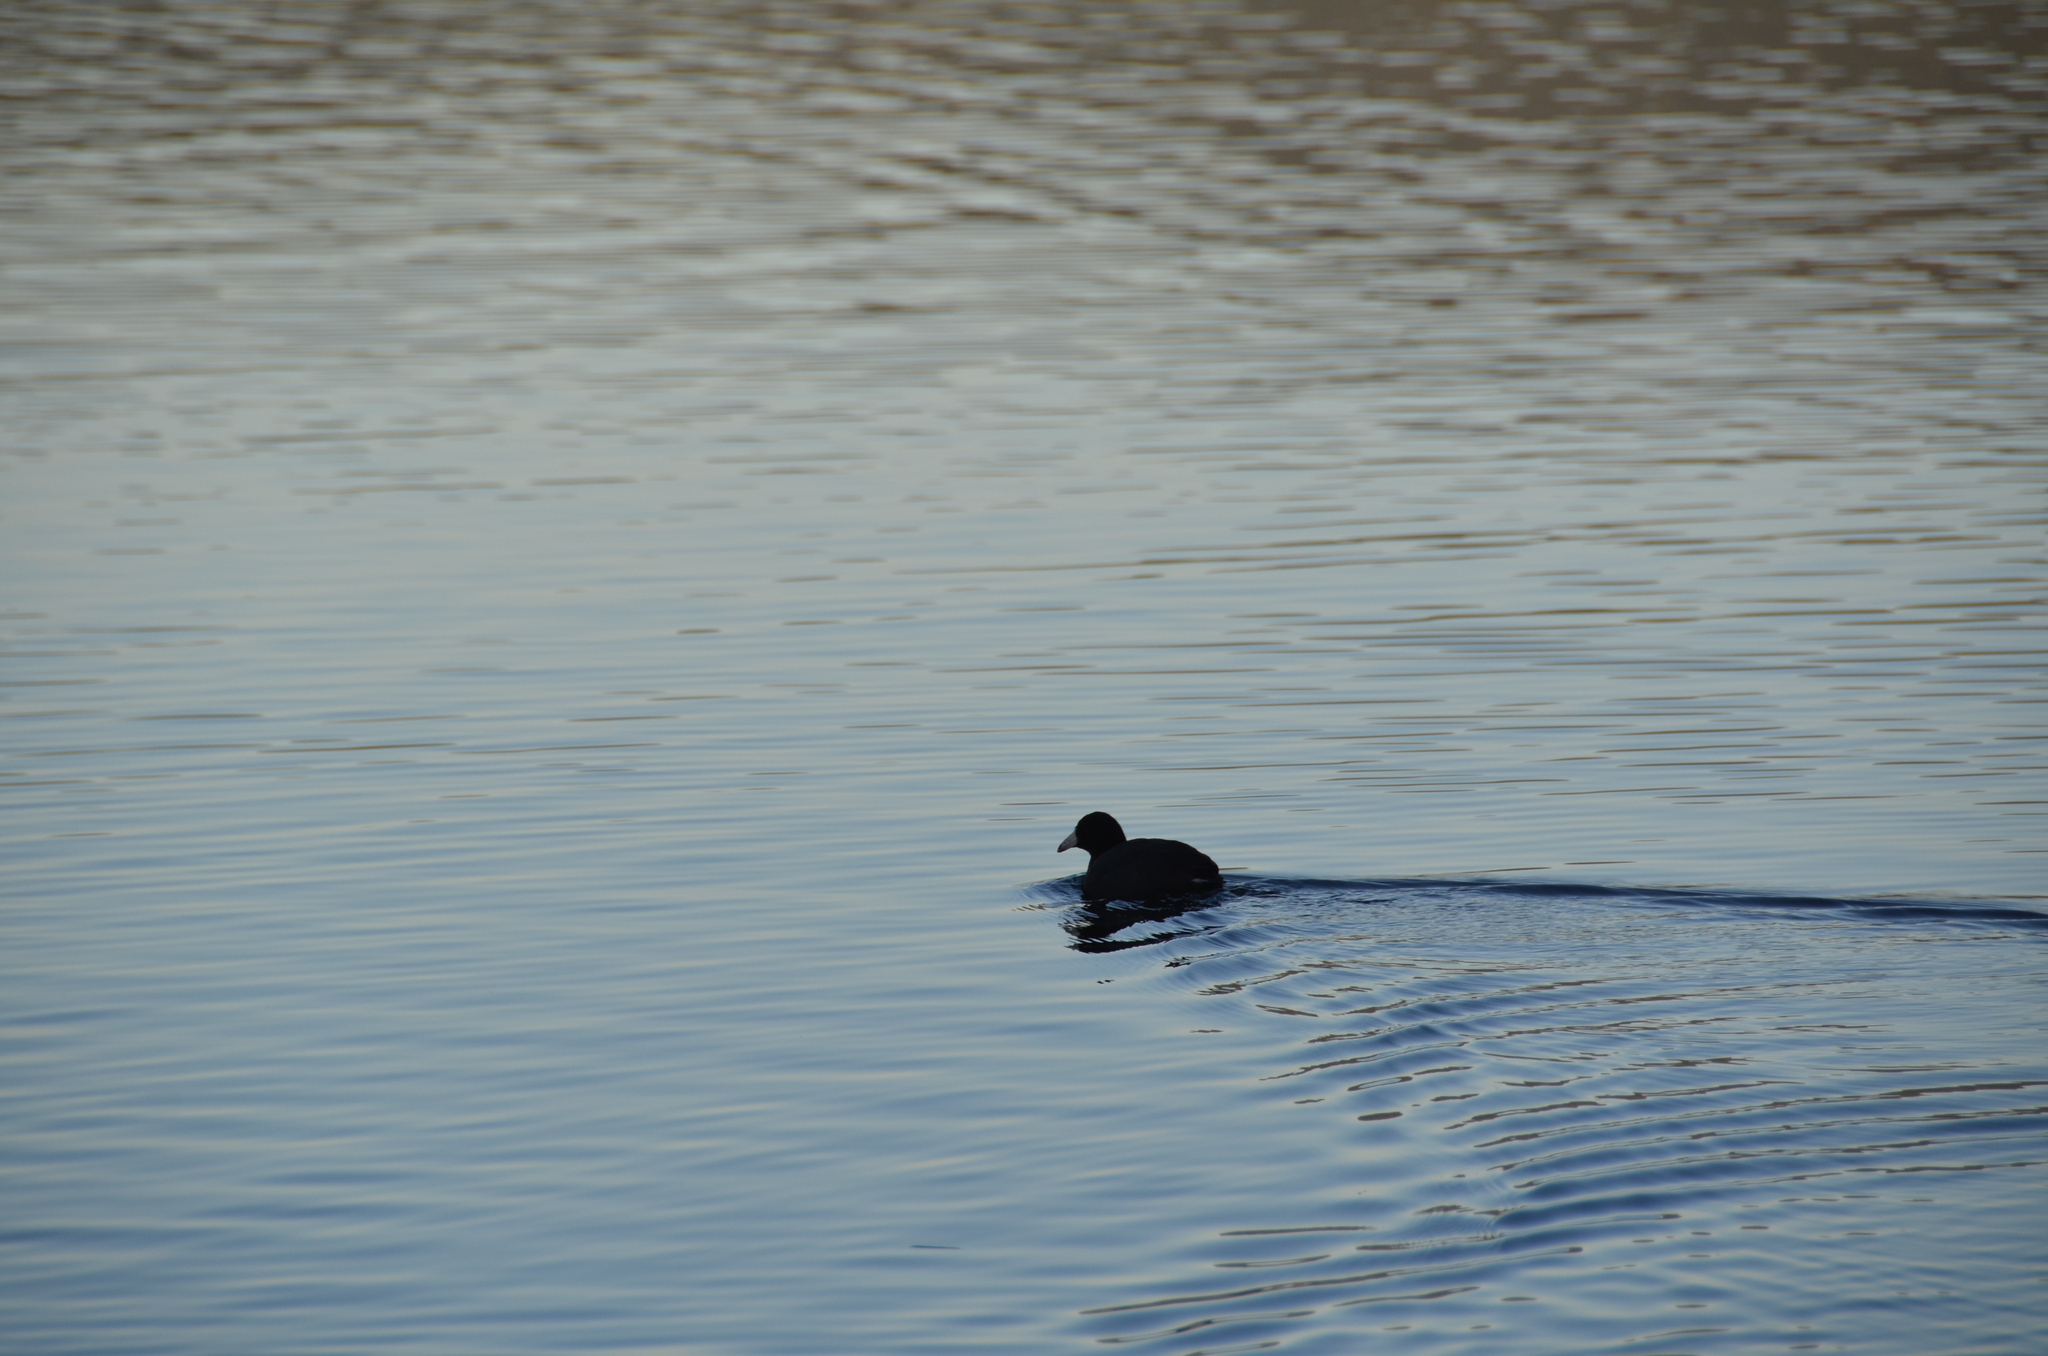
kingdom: Animalia
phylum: Chordata
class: Aves
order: Gruiformes
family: Rallidae
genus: Fulica
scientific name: Fulica americana
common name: American coot
